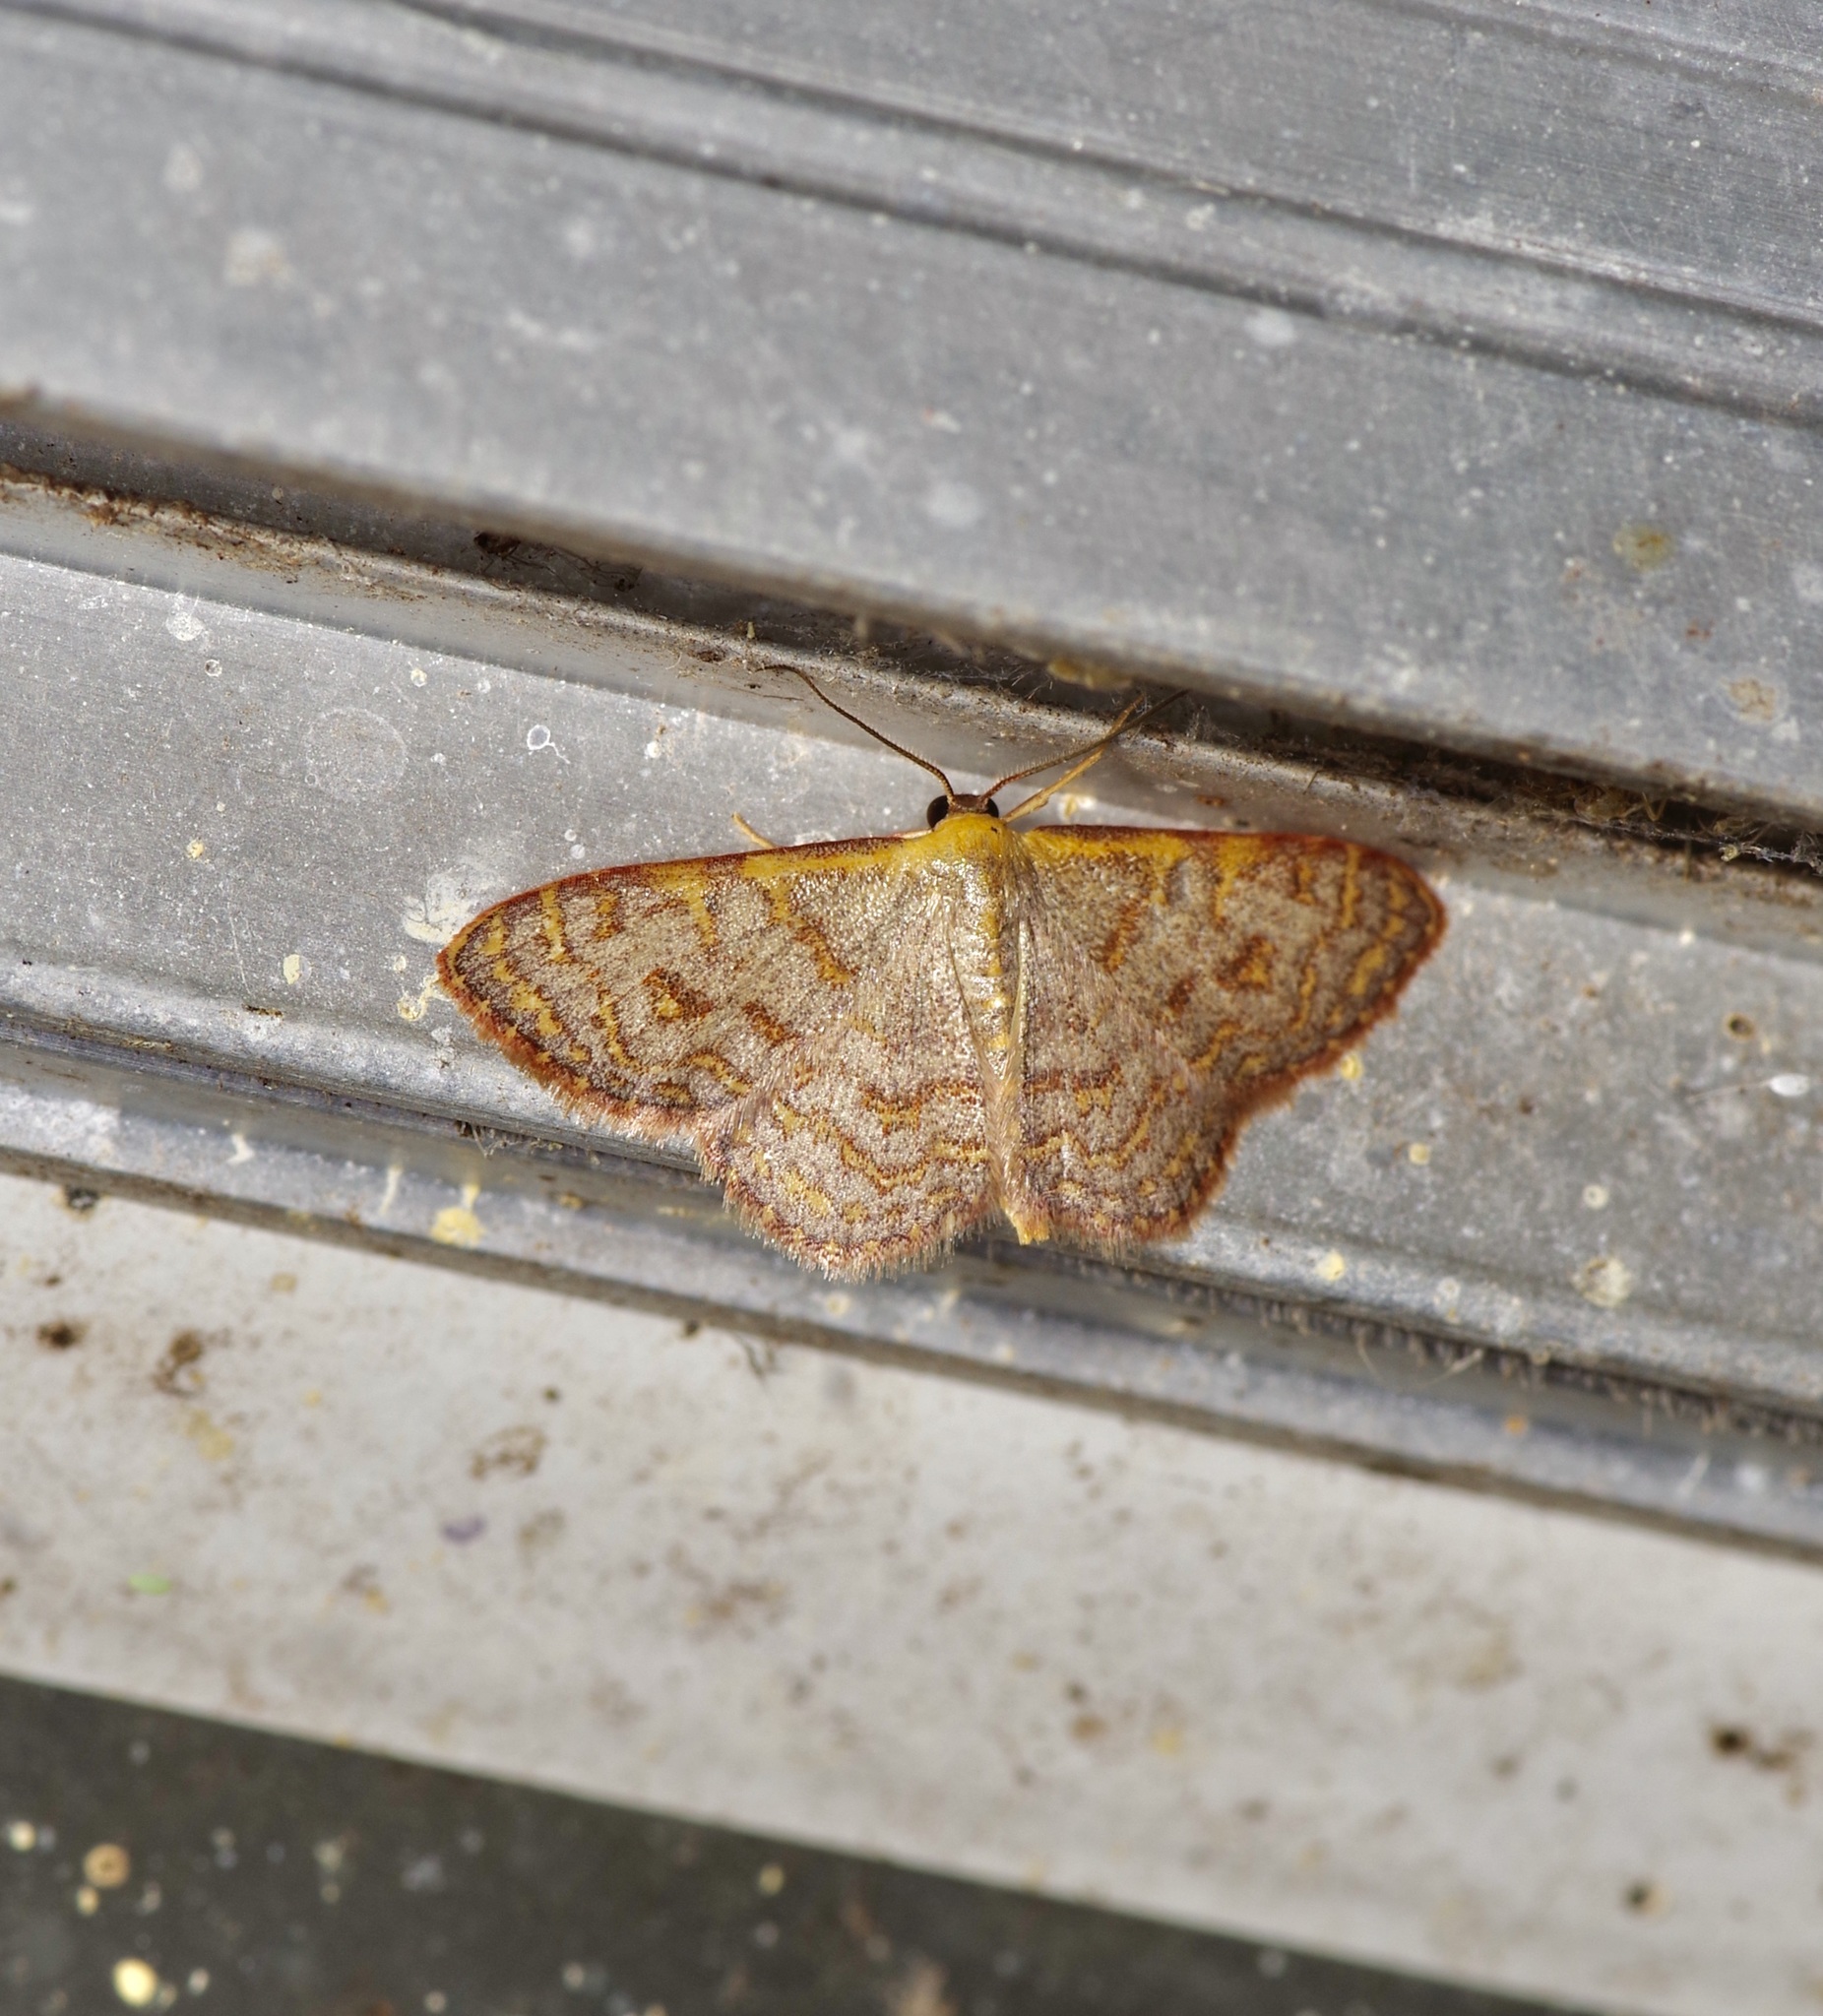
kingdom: Animalia
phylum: Arthropoda
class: Insecta
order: Lepidoptera
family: Geometridae
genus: Leptostales
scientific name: Leptostales pannaria
